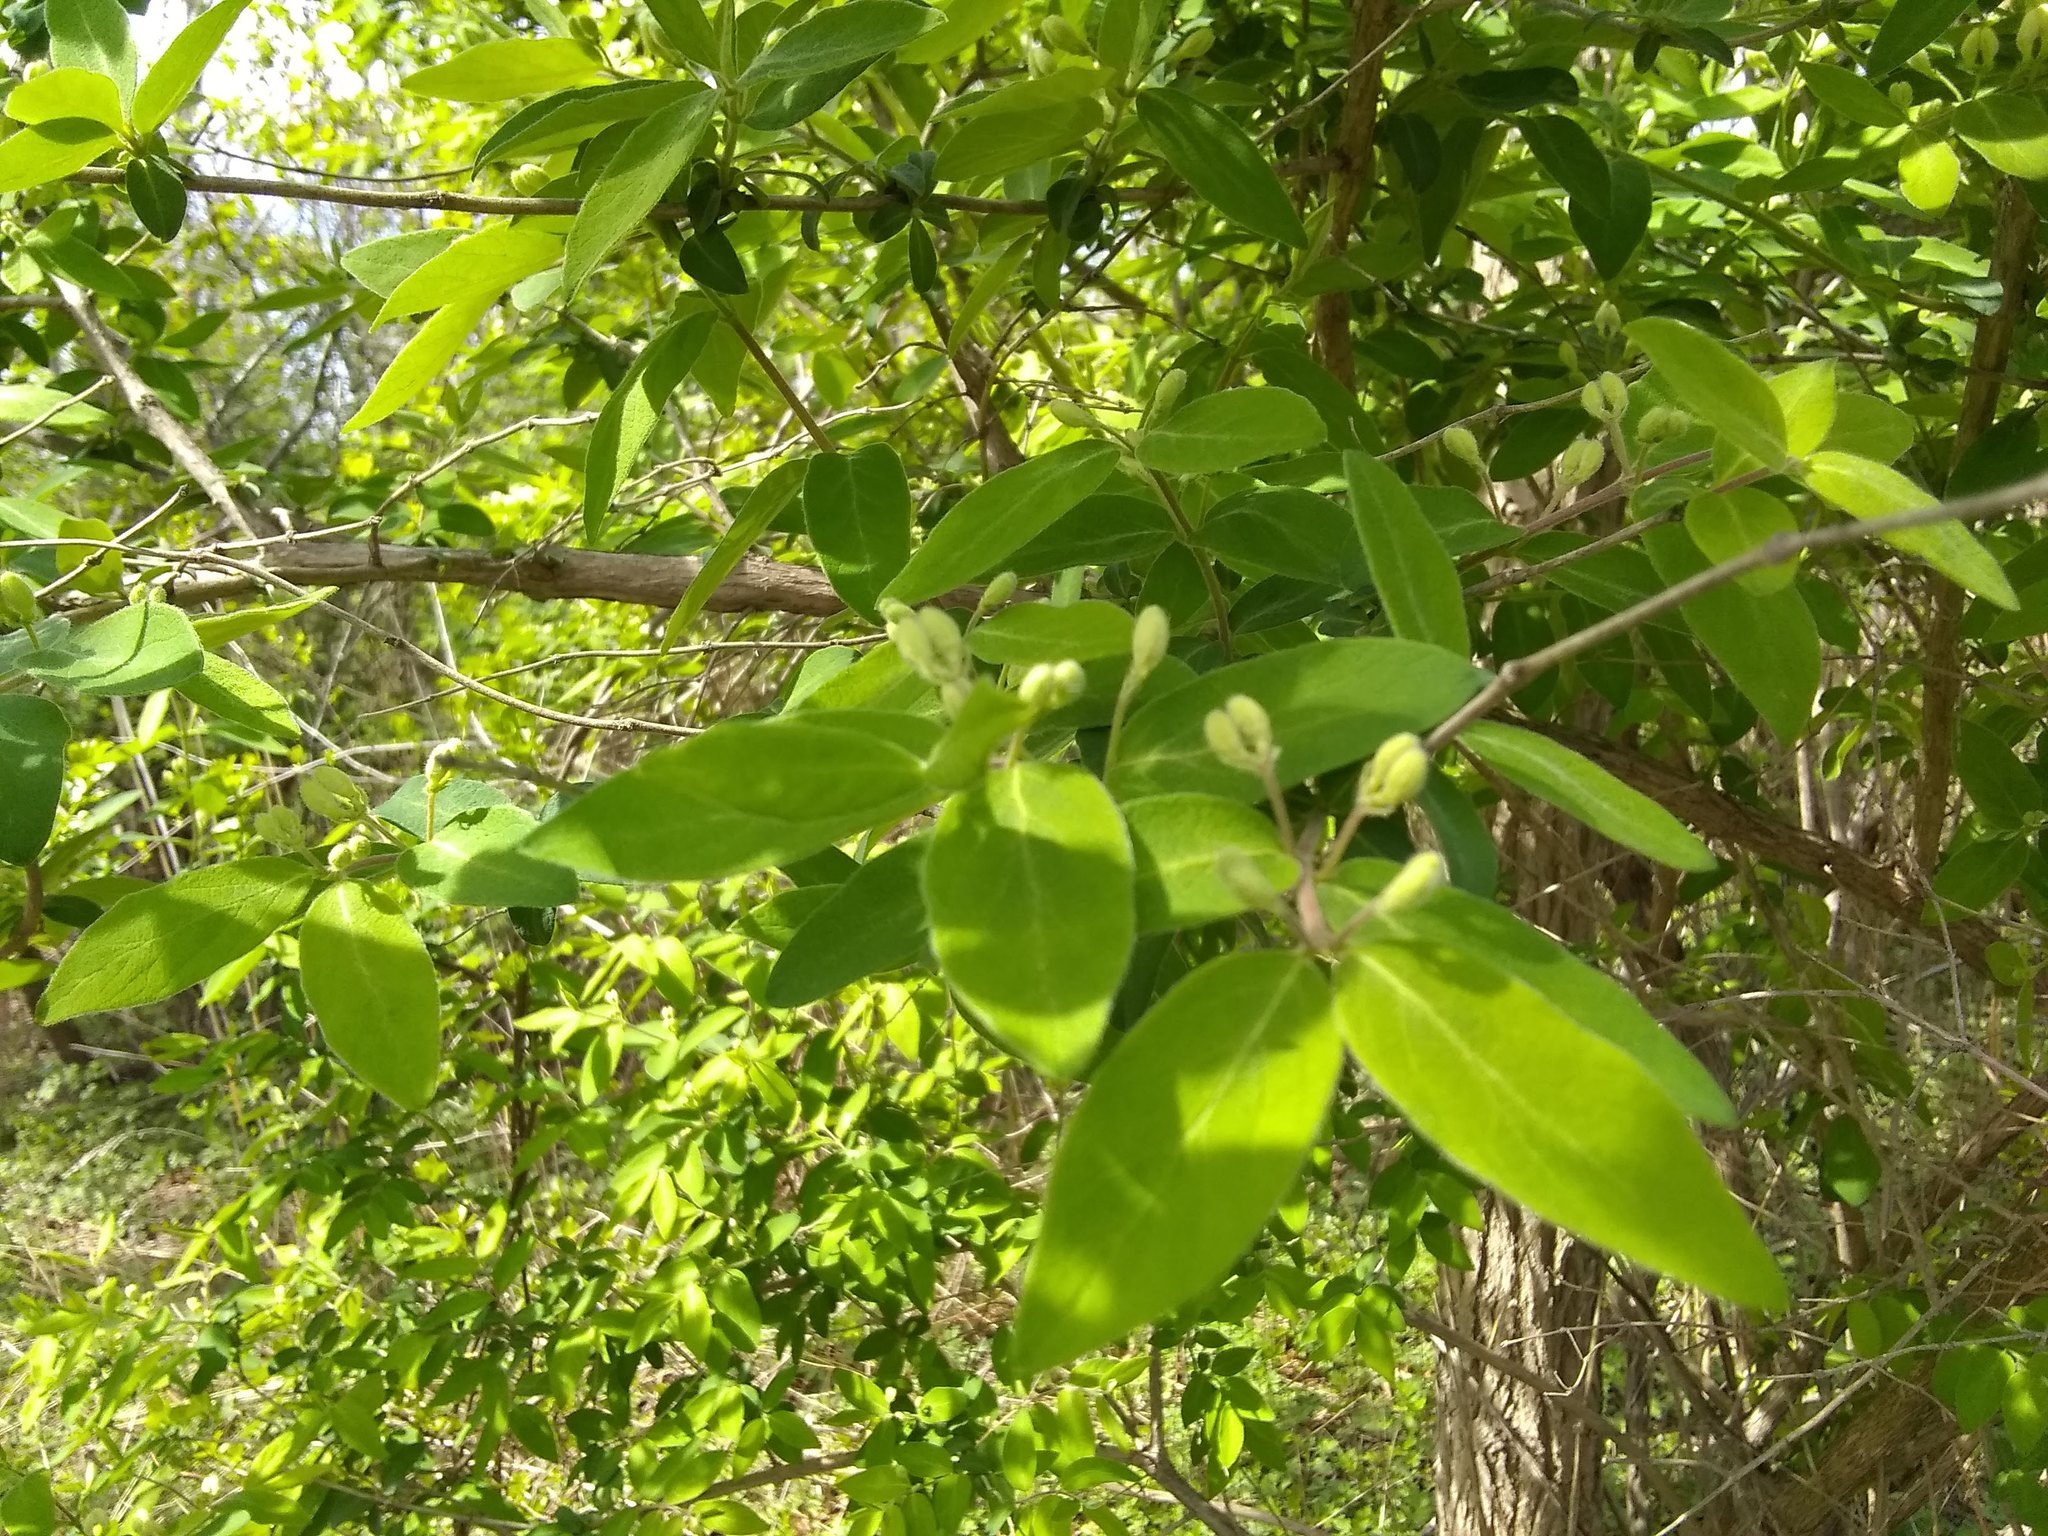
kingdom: Plantae
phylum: Tracheophyta
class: Magnoliopsida
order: Dipsacales
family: Caprifoliaceae
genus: Lonicera
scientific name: Lonicera morrowii
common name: Morrow's honeysuckle
